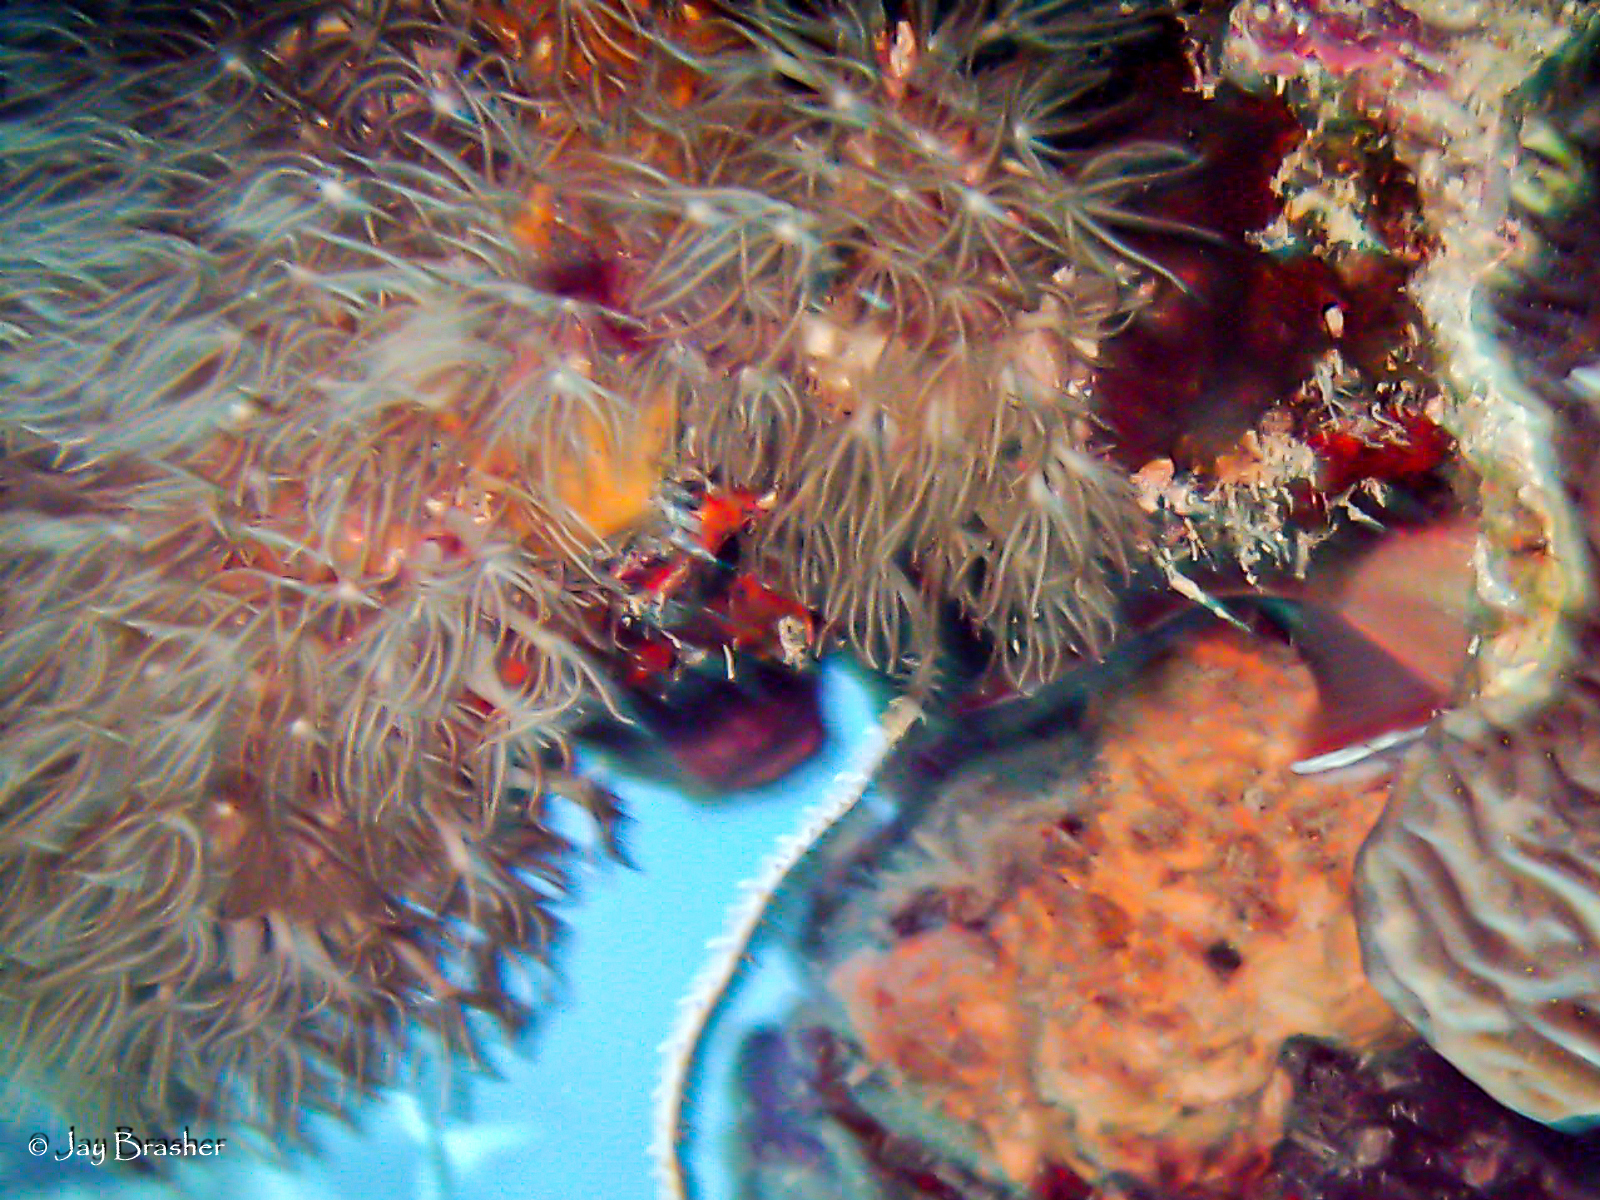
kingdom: Animalia
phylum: Cnidaria
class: Anthozoa
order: Scleralcyonacea
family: Erythropodiidae
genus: Erythropodium
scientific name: Erythropodium caribaeorum
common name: Encrusting gorgonian
